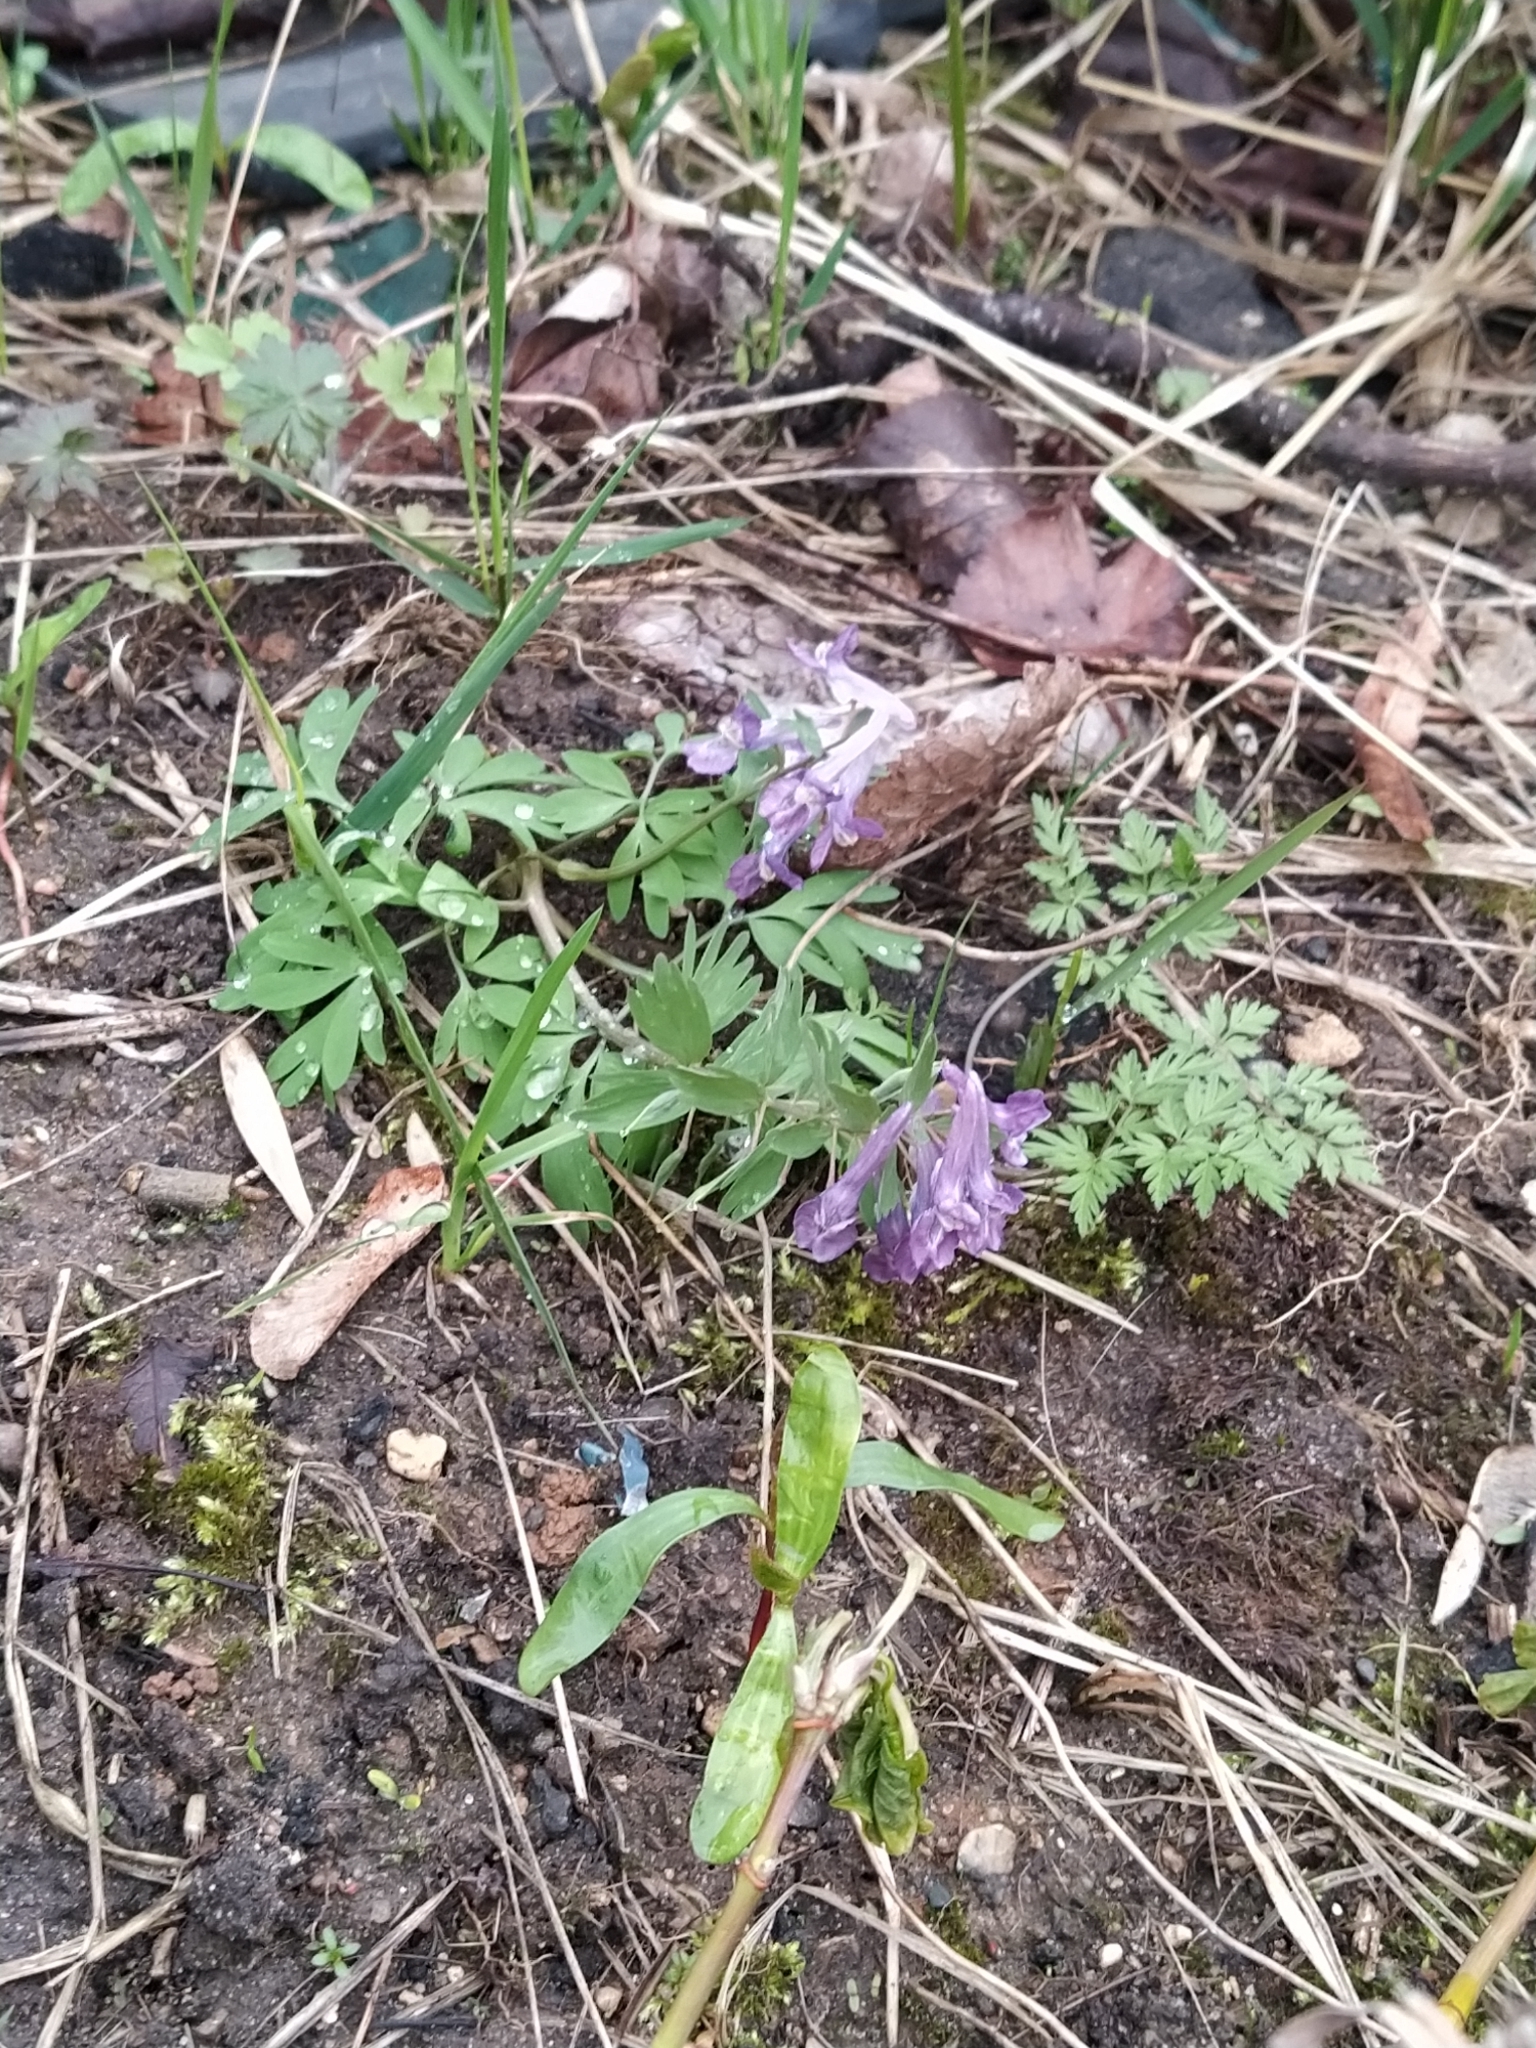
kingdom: Plantae
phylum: Tracheophyta
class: Magnoliopsida
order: Ranunculales
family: Papaveraceae
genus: Corydalis
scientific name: Corydalis solida
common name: Bird-in-a-bush
